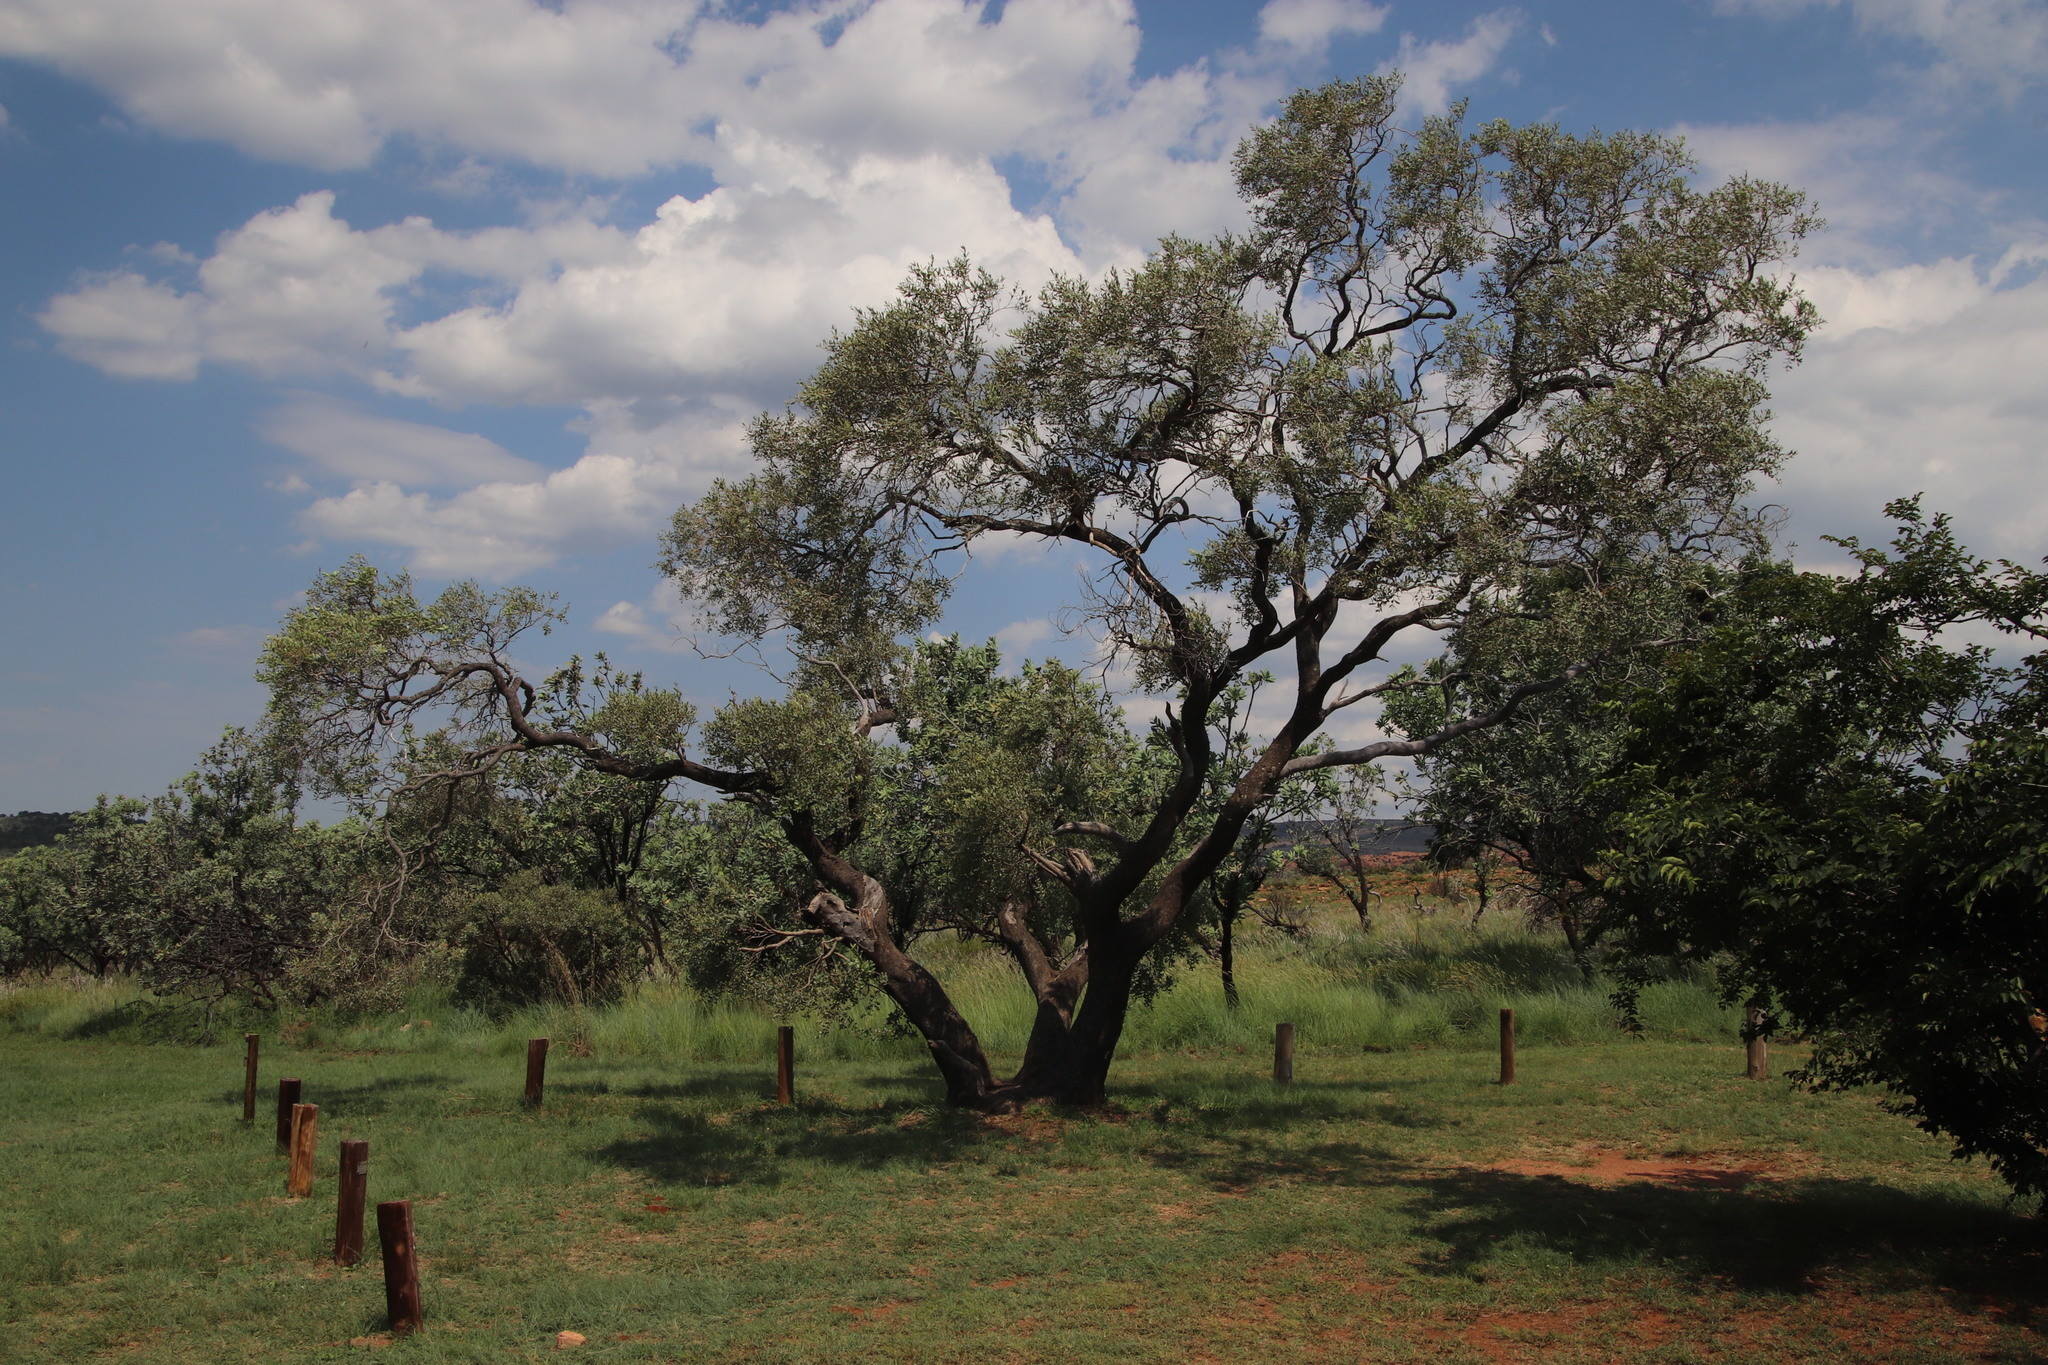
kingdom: Plantae
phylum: Tracheophyta
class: Magnoliopsida
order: Sapindales
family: Anacardiaceae
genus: Ozoroa
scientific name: Ozoroa paniculosa
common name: Bushveld ozoroa
